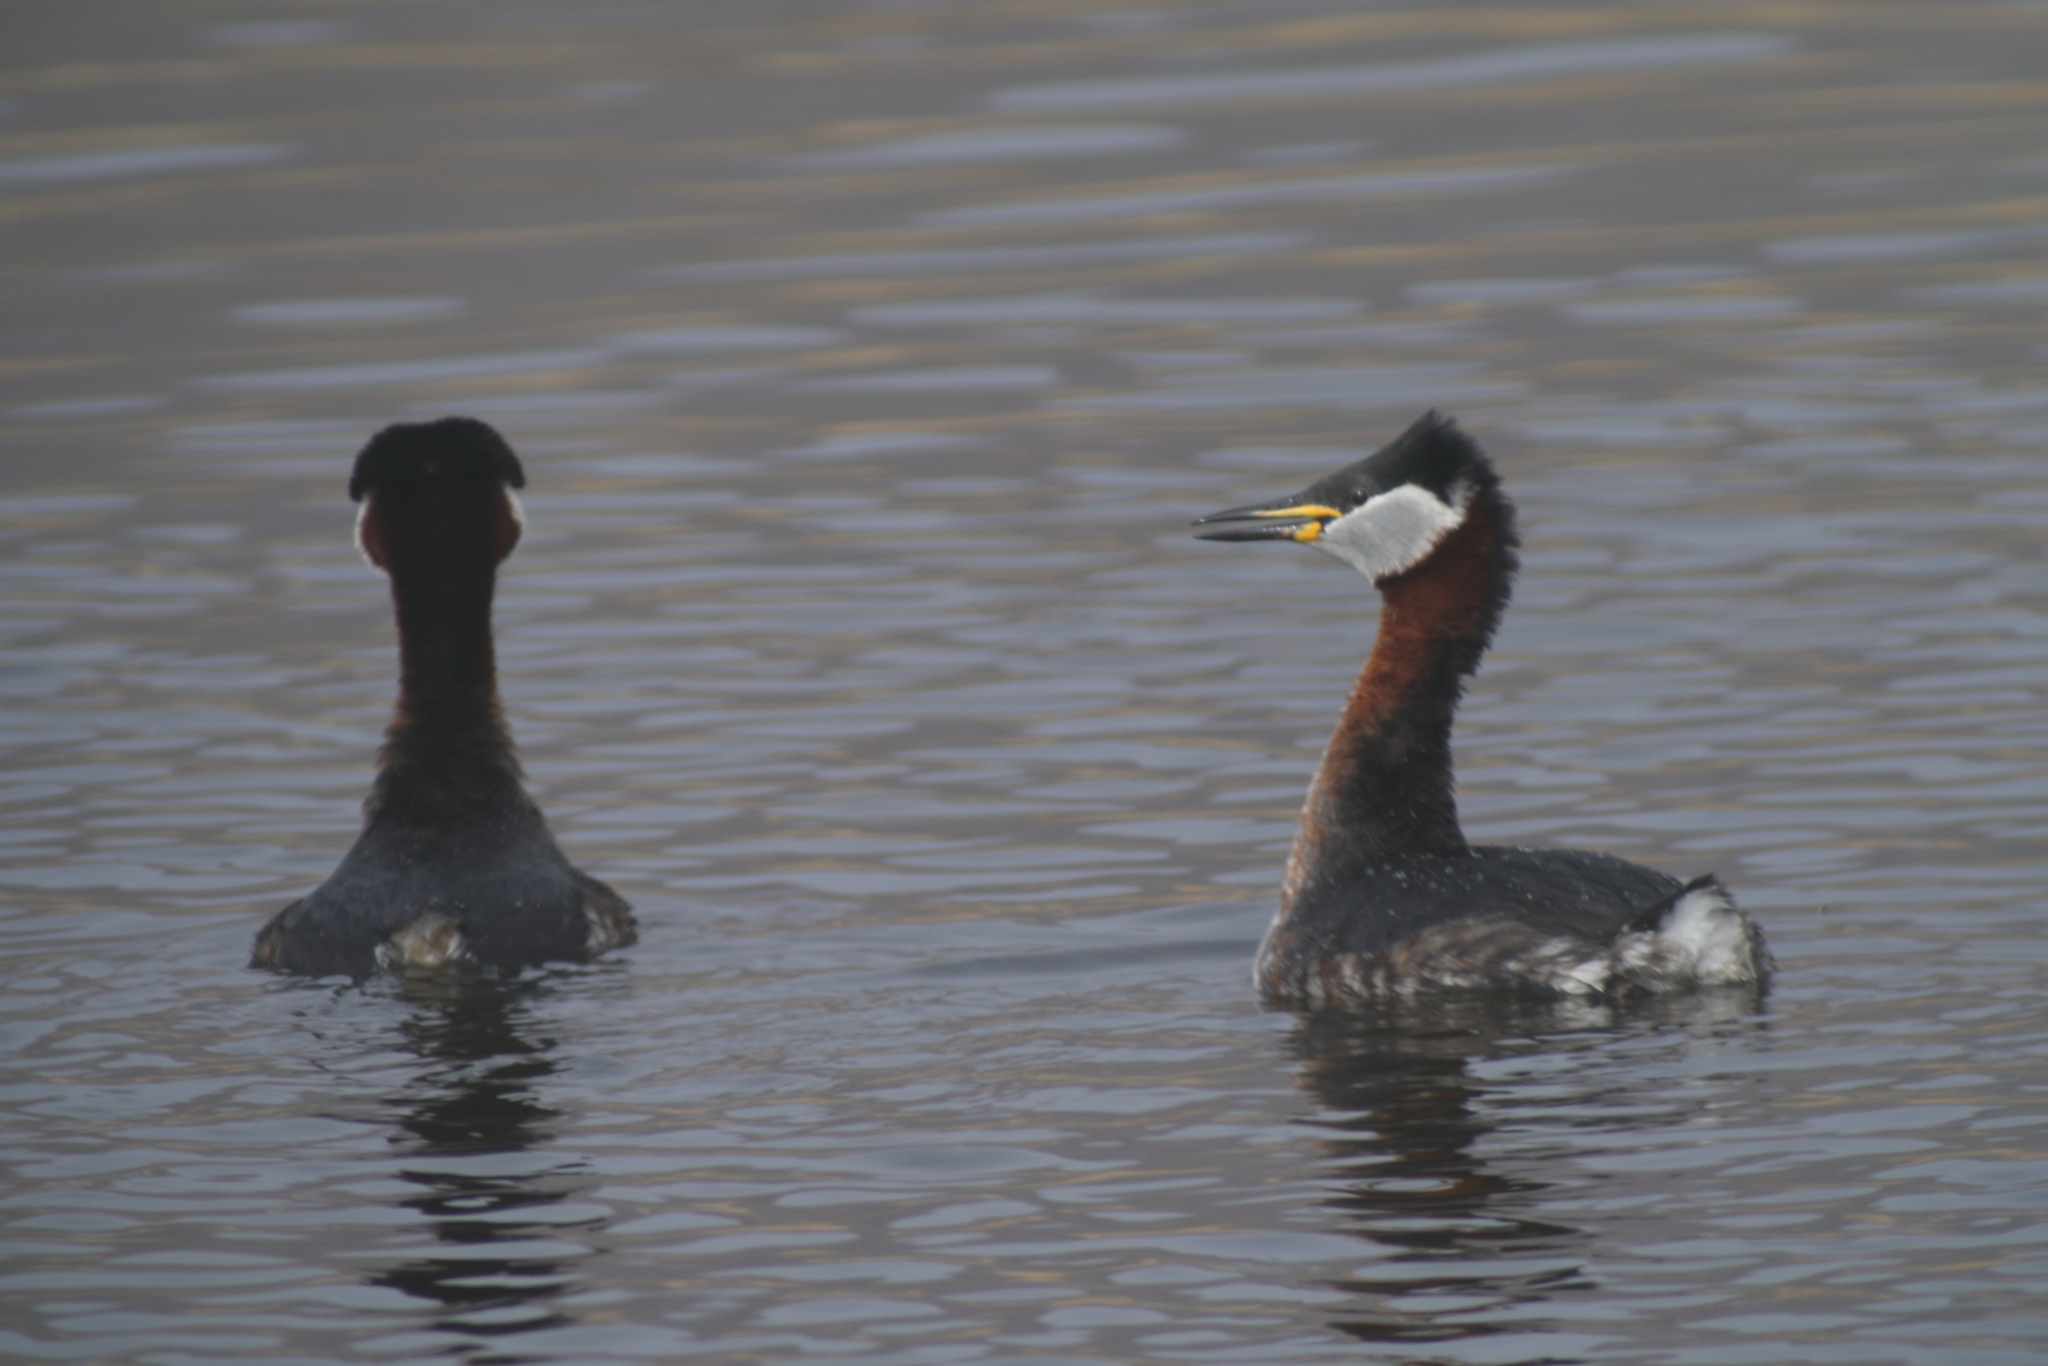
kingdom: Animalia
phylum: Chordata
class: Aves
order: Podicipediformes
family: Podicipedidae
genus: Podiceps
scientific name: Podiceps grisegena
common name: Red-necked grebe
